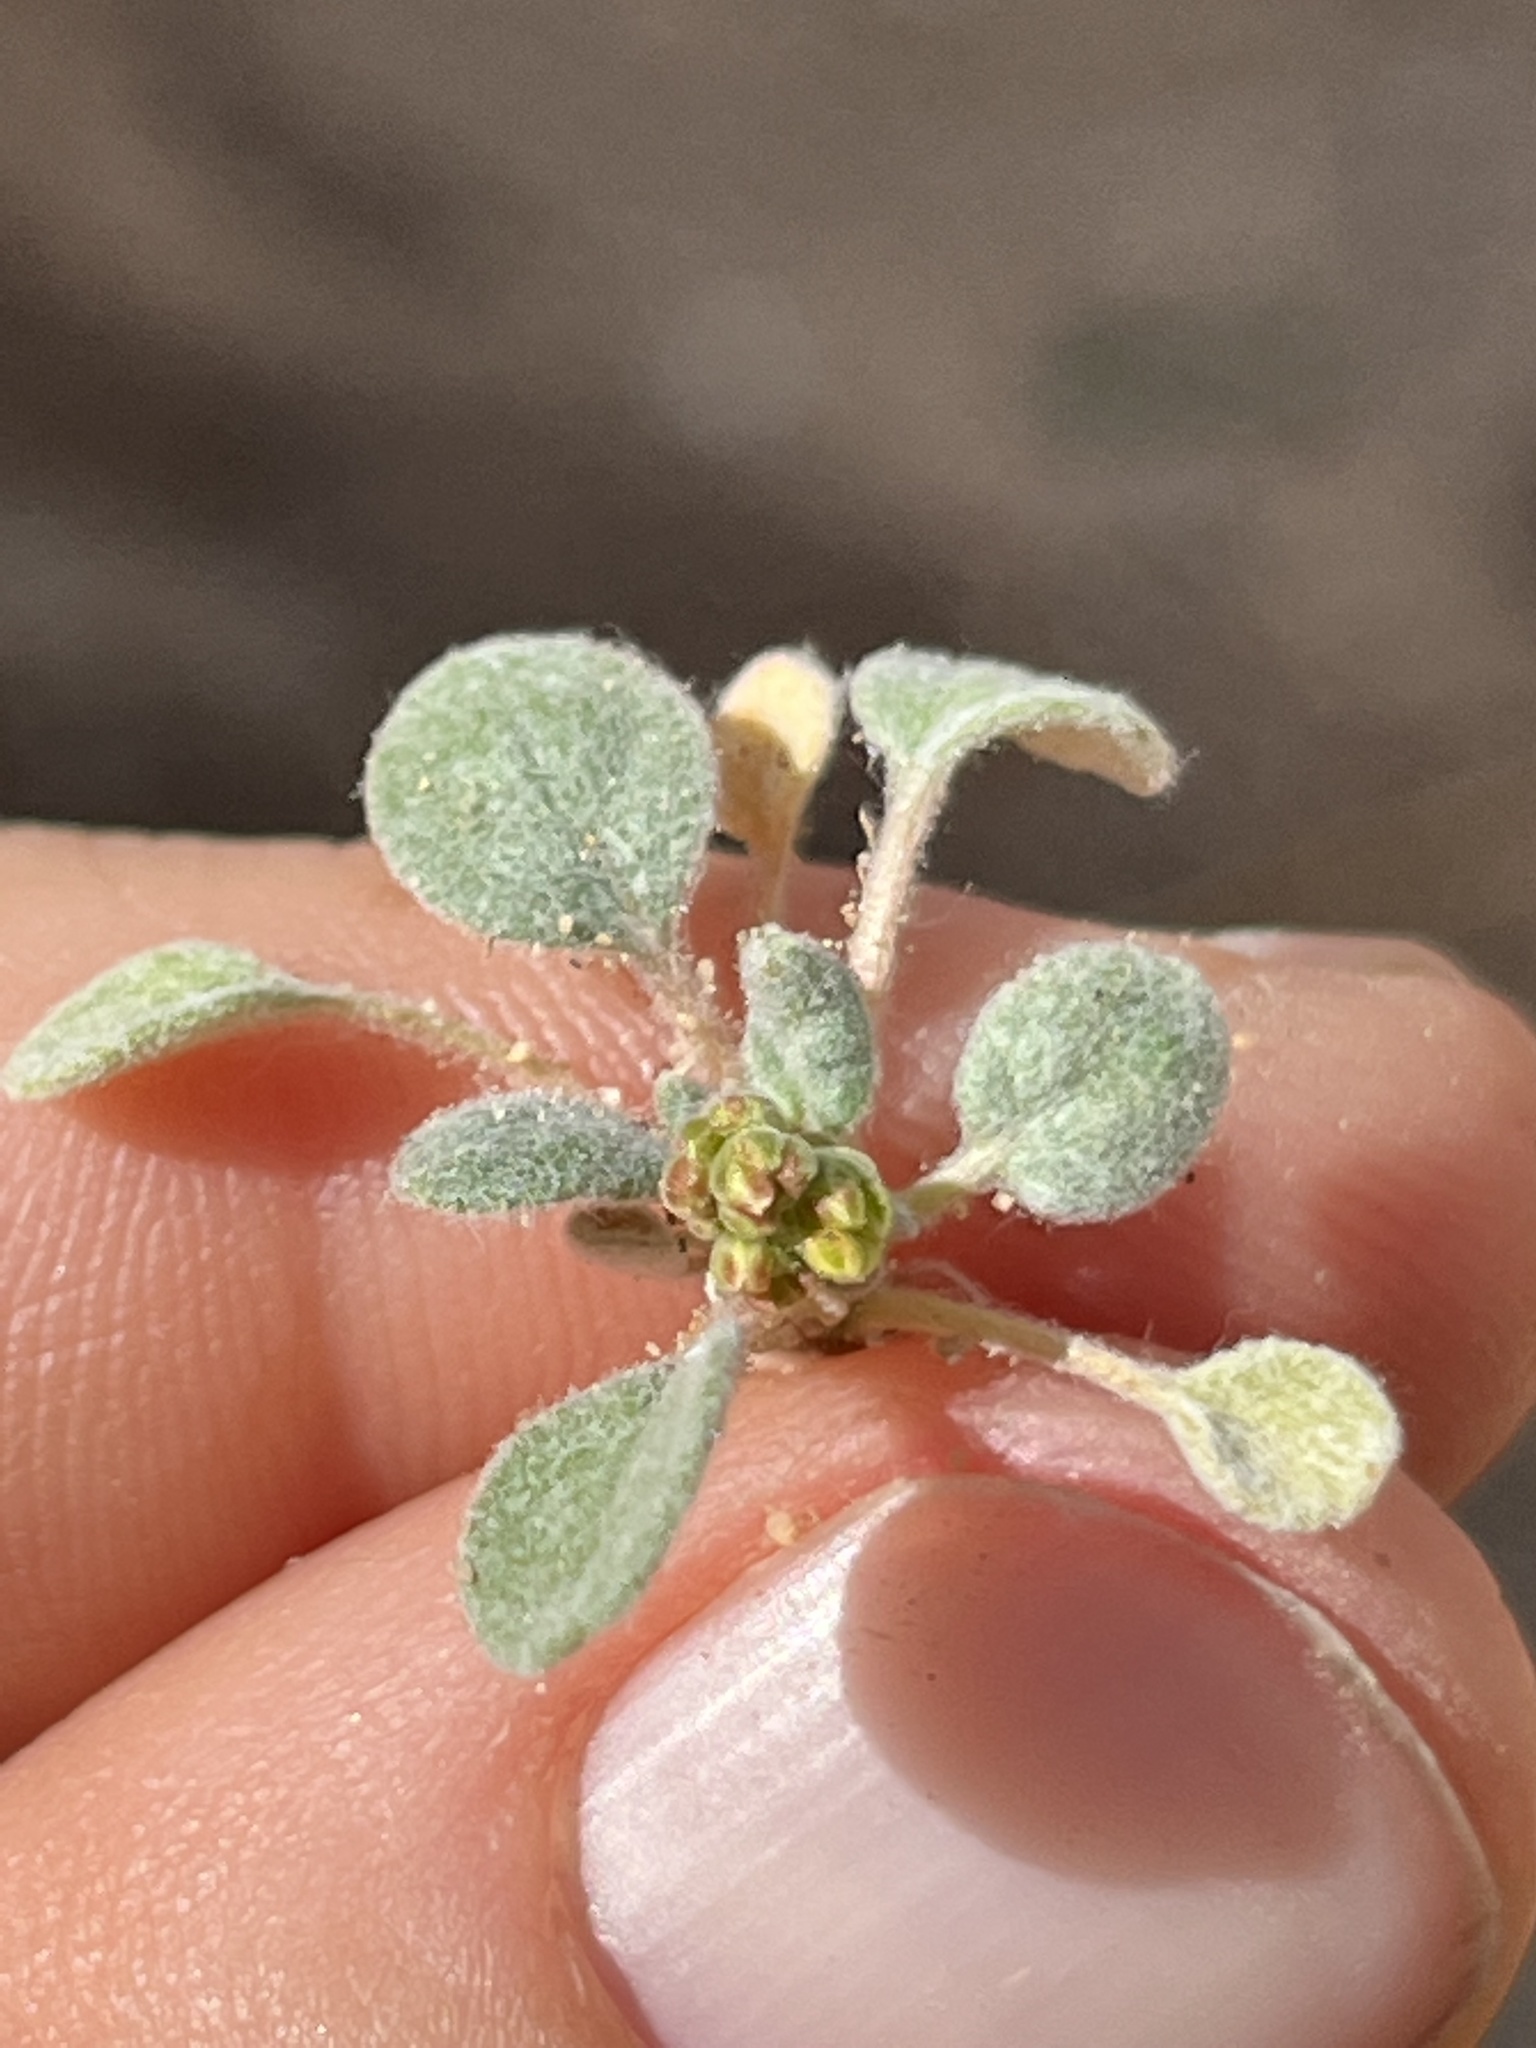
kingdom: Plantae
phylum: Tracheophyta
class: Magnoliopsida
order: Caryophyllales
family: Polygonaceae
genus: Eriogonum
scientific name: Eriogonum pusillum
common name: Yellow turbans
